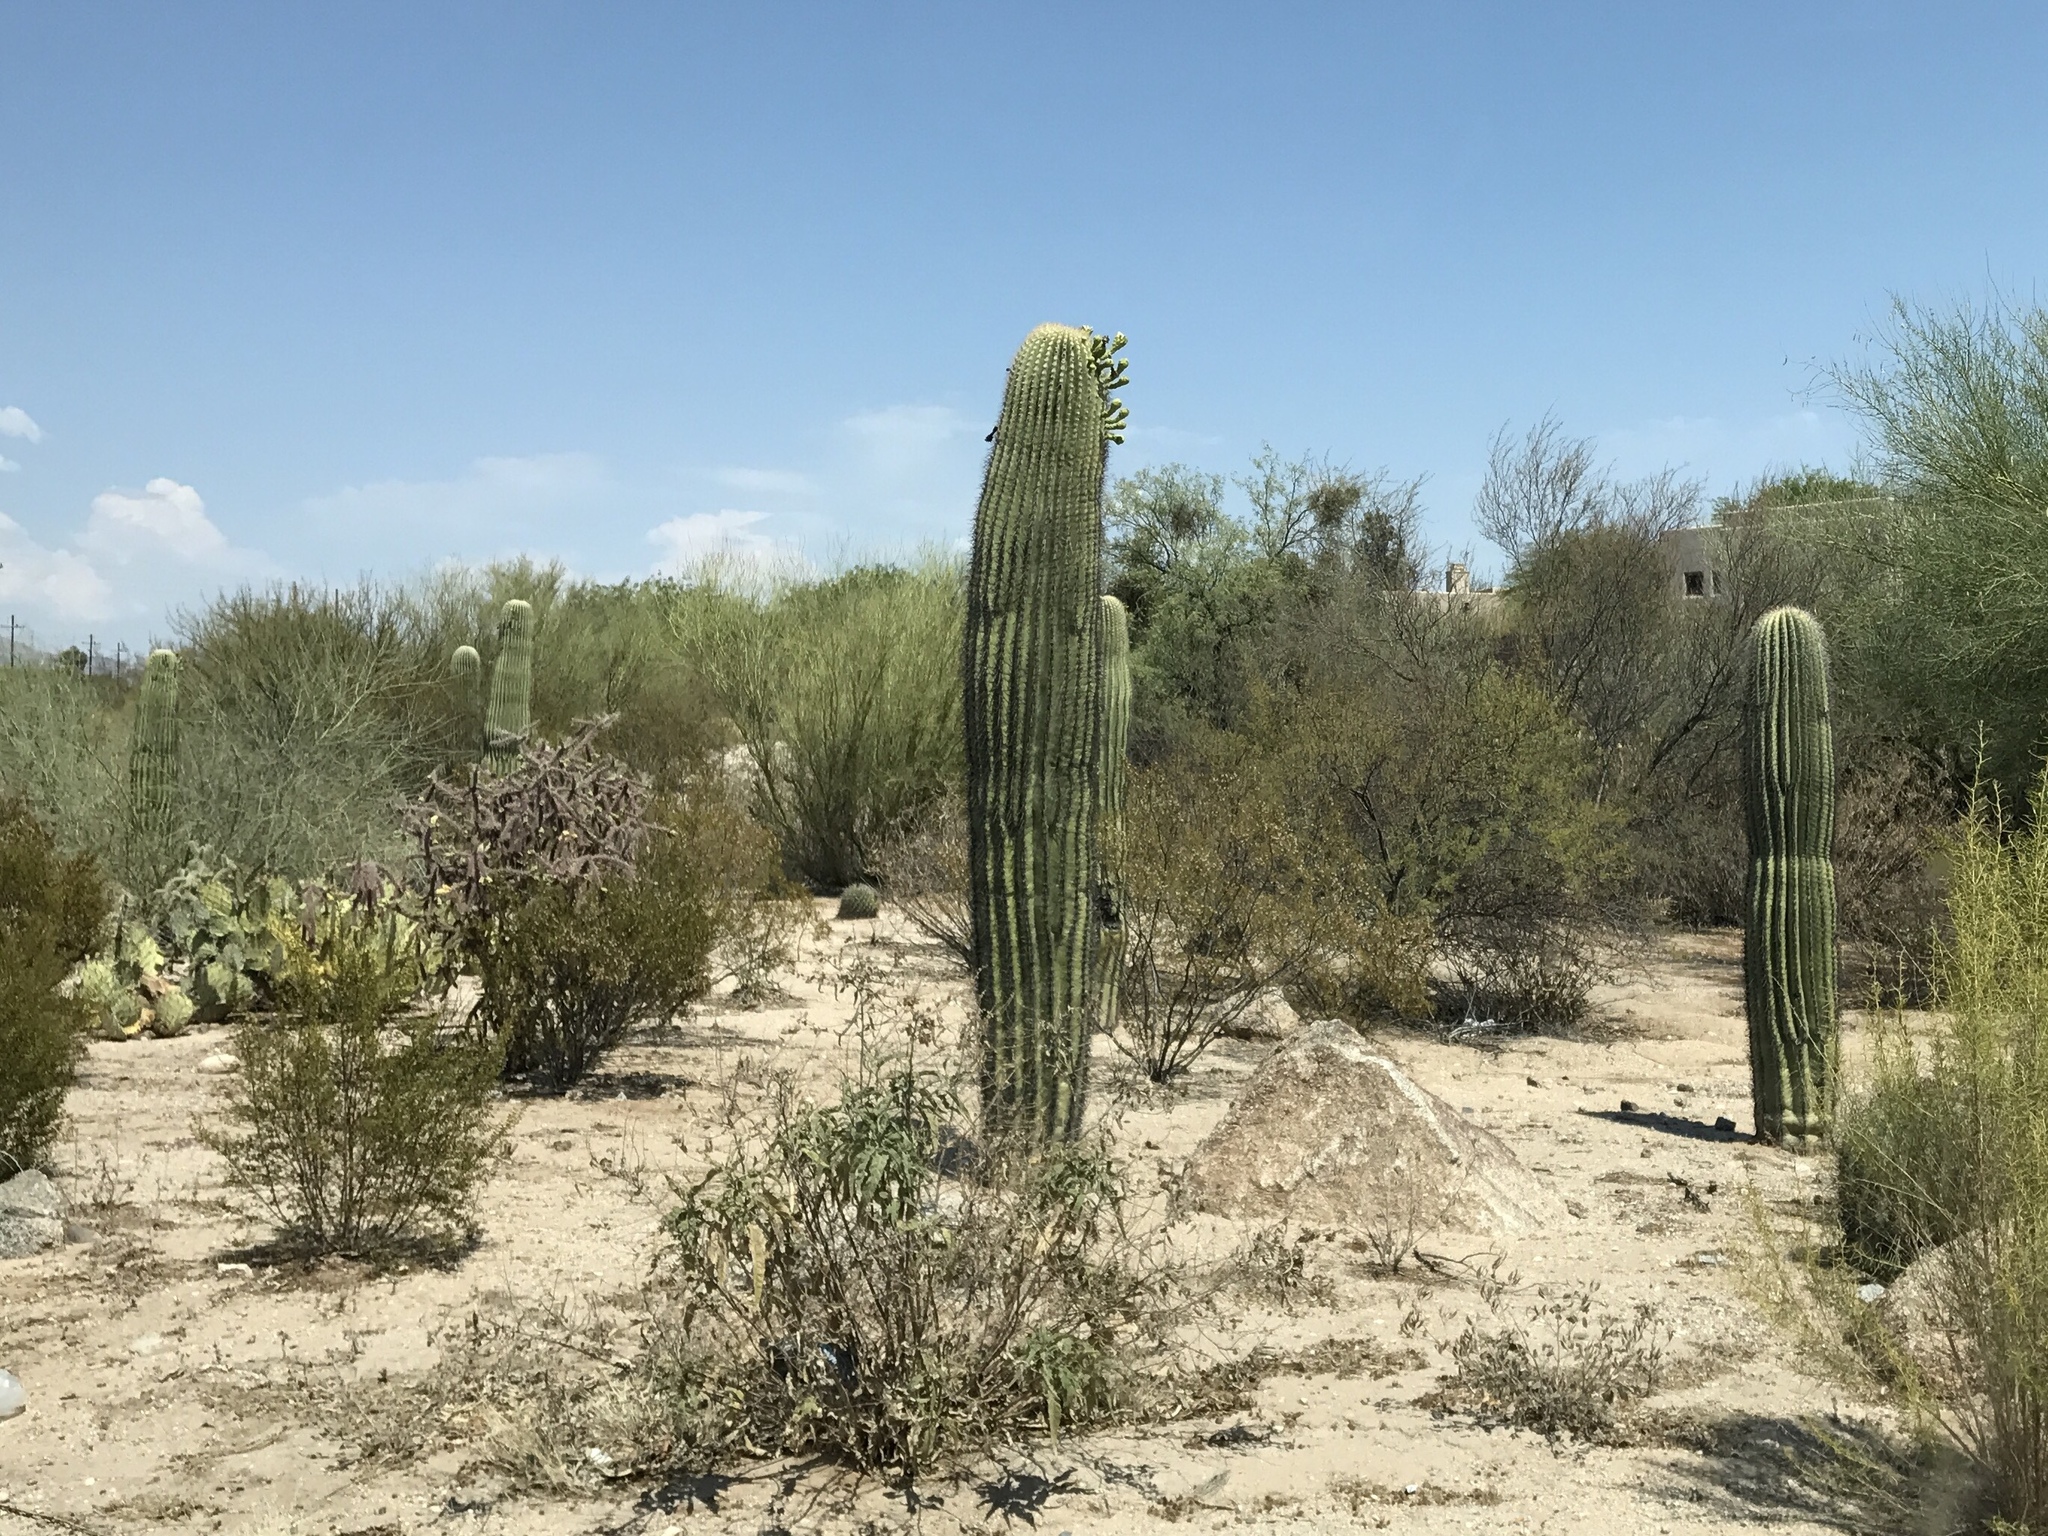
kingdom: Plantae
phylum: Tracheophyta
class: Magnoliopsida
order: Caryophyllales
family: Cactaceae
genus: Carnegiea
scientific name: Carnegiea gigantea
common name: Saguaro
